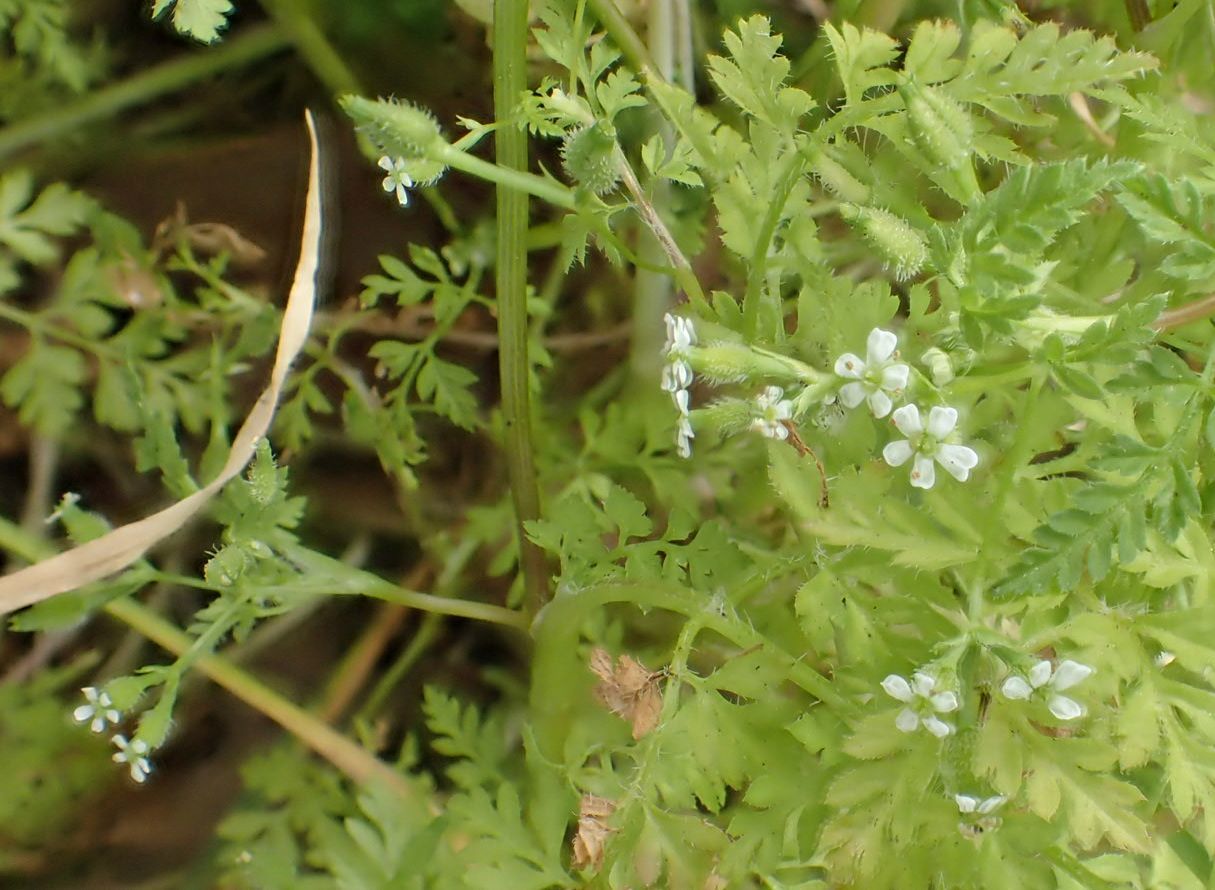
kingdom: Plantae
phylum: Tracheophyta
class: Magnoliopsida
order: Apiales
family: Apiaceae
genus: Anthriscus
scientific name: Anthriscus caucalis
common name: Bur chervil
